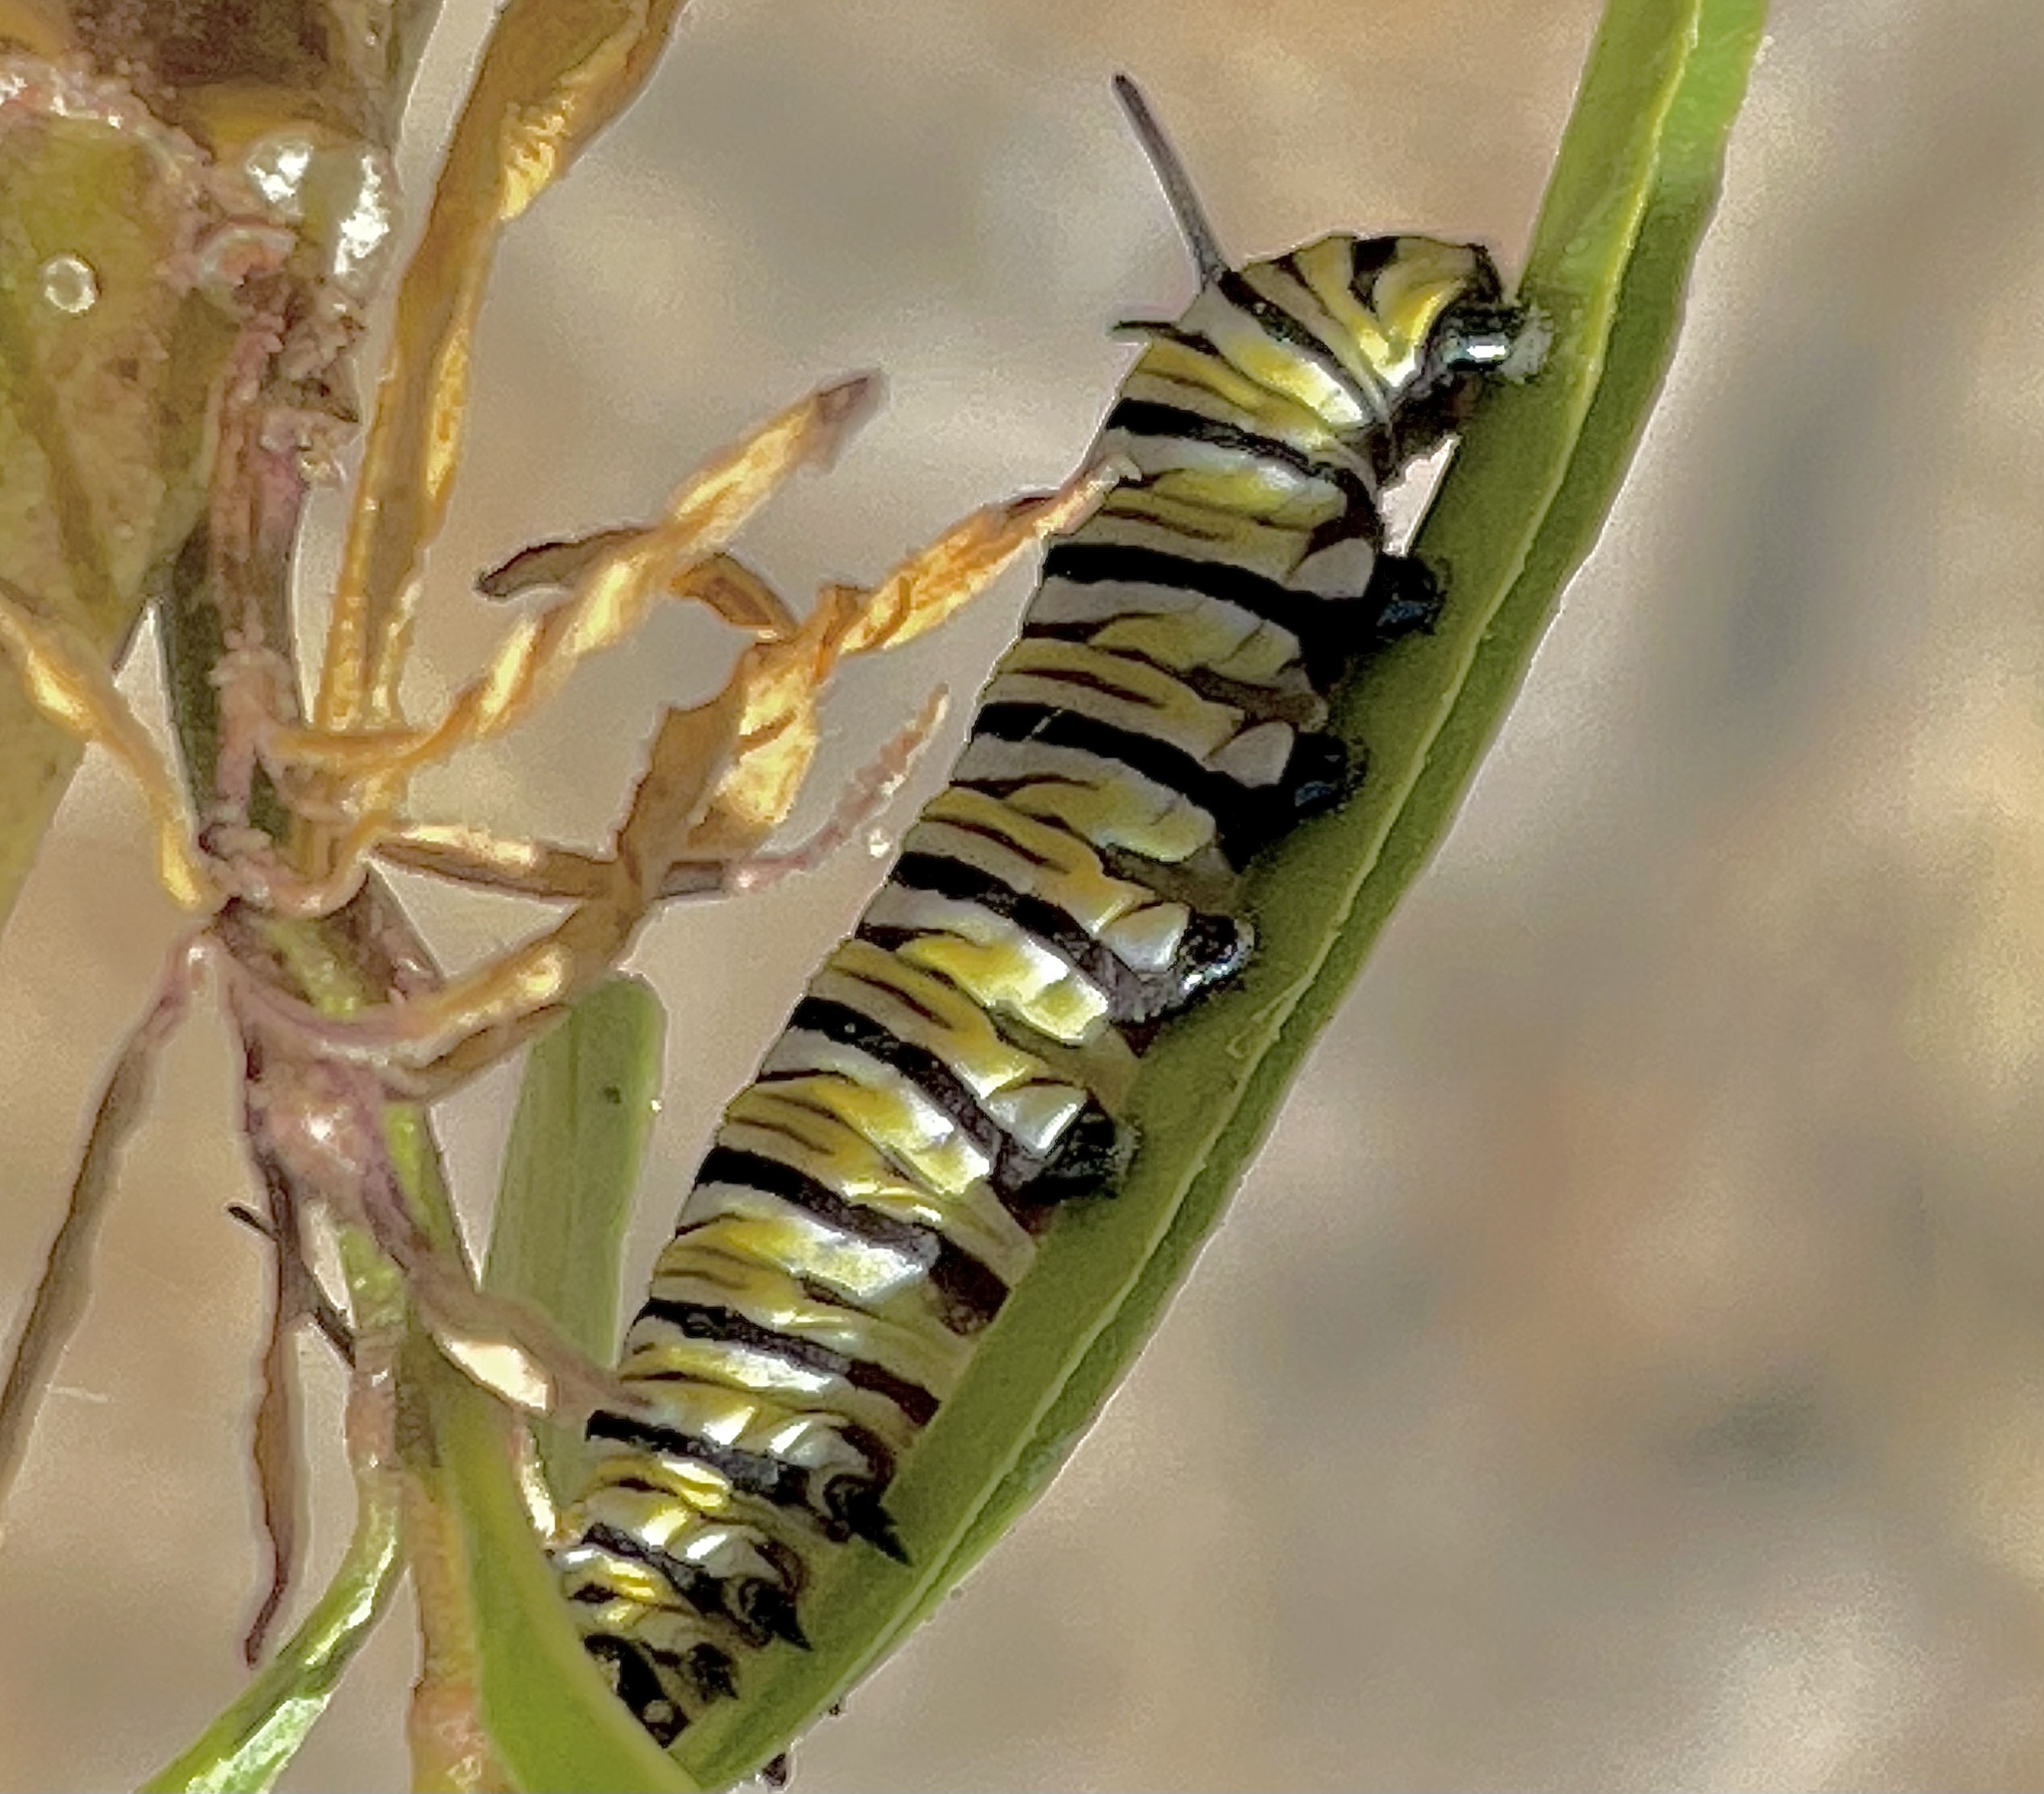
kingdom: Animalia
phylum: Arthropoda
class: Insecta
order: Lepidoptera
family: Nymphalidae
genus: Danaus
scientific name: Danaus plexippus
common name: Monarch
